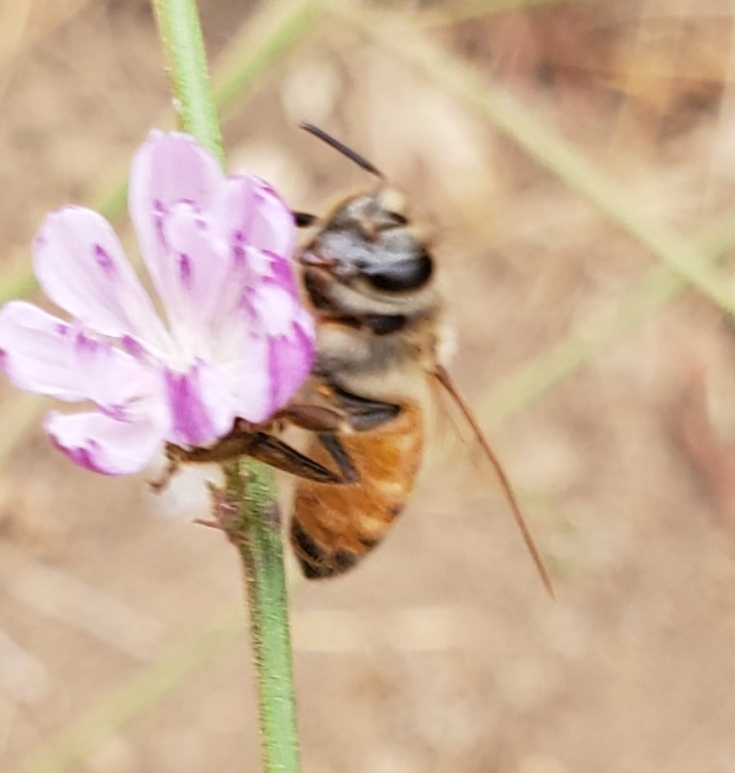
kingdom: Animalia
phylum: Arthropoda
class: Insecta
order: Hymenoptera
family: Apidae
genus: Apis
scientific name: Apis mellifera
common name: Honey bee
